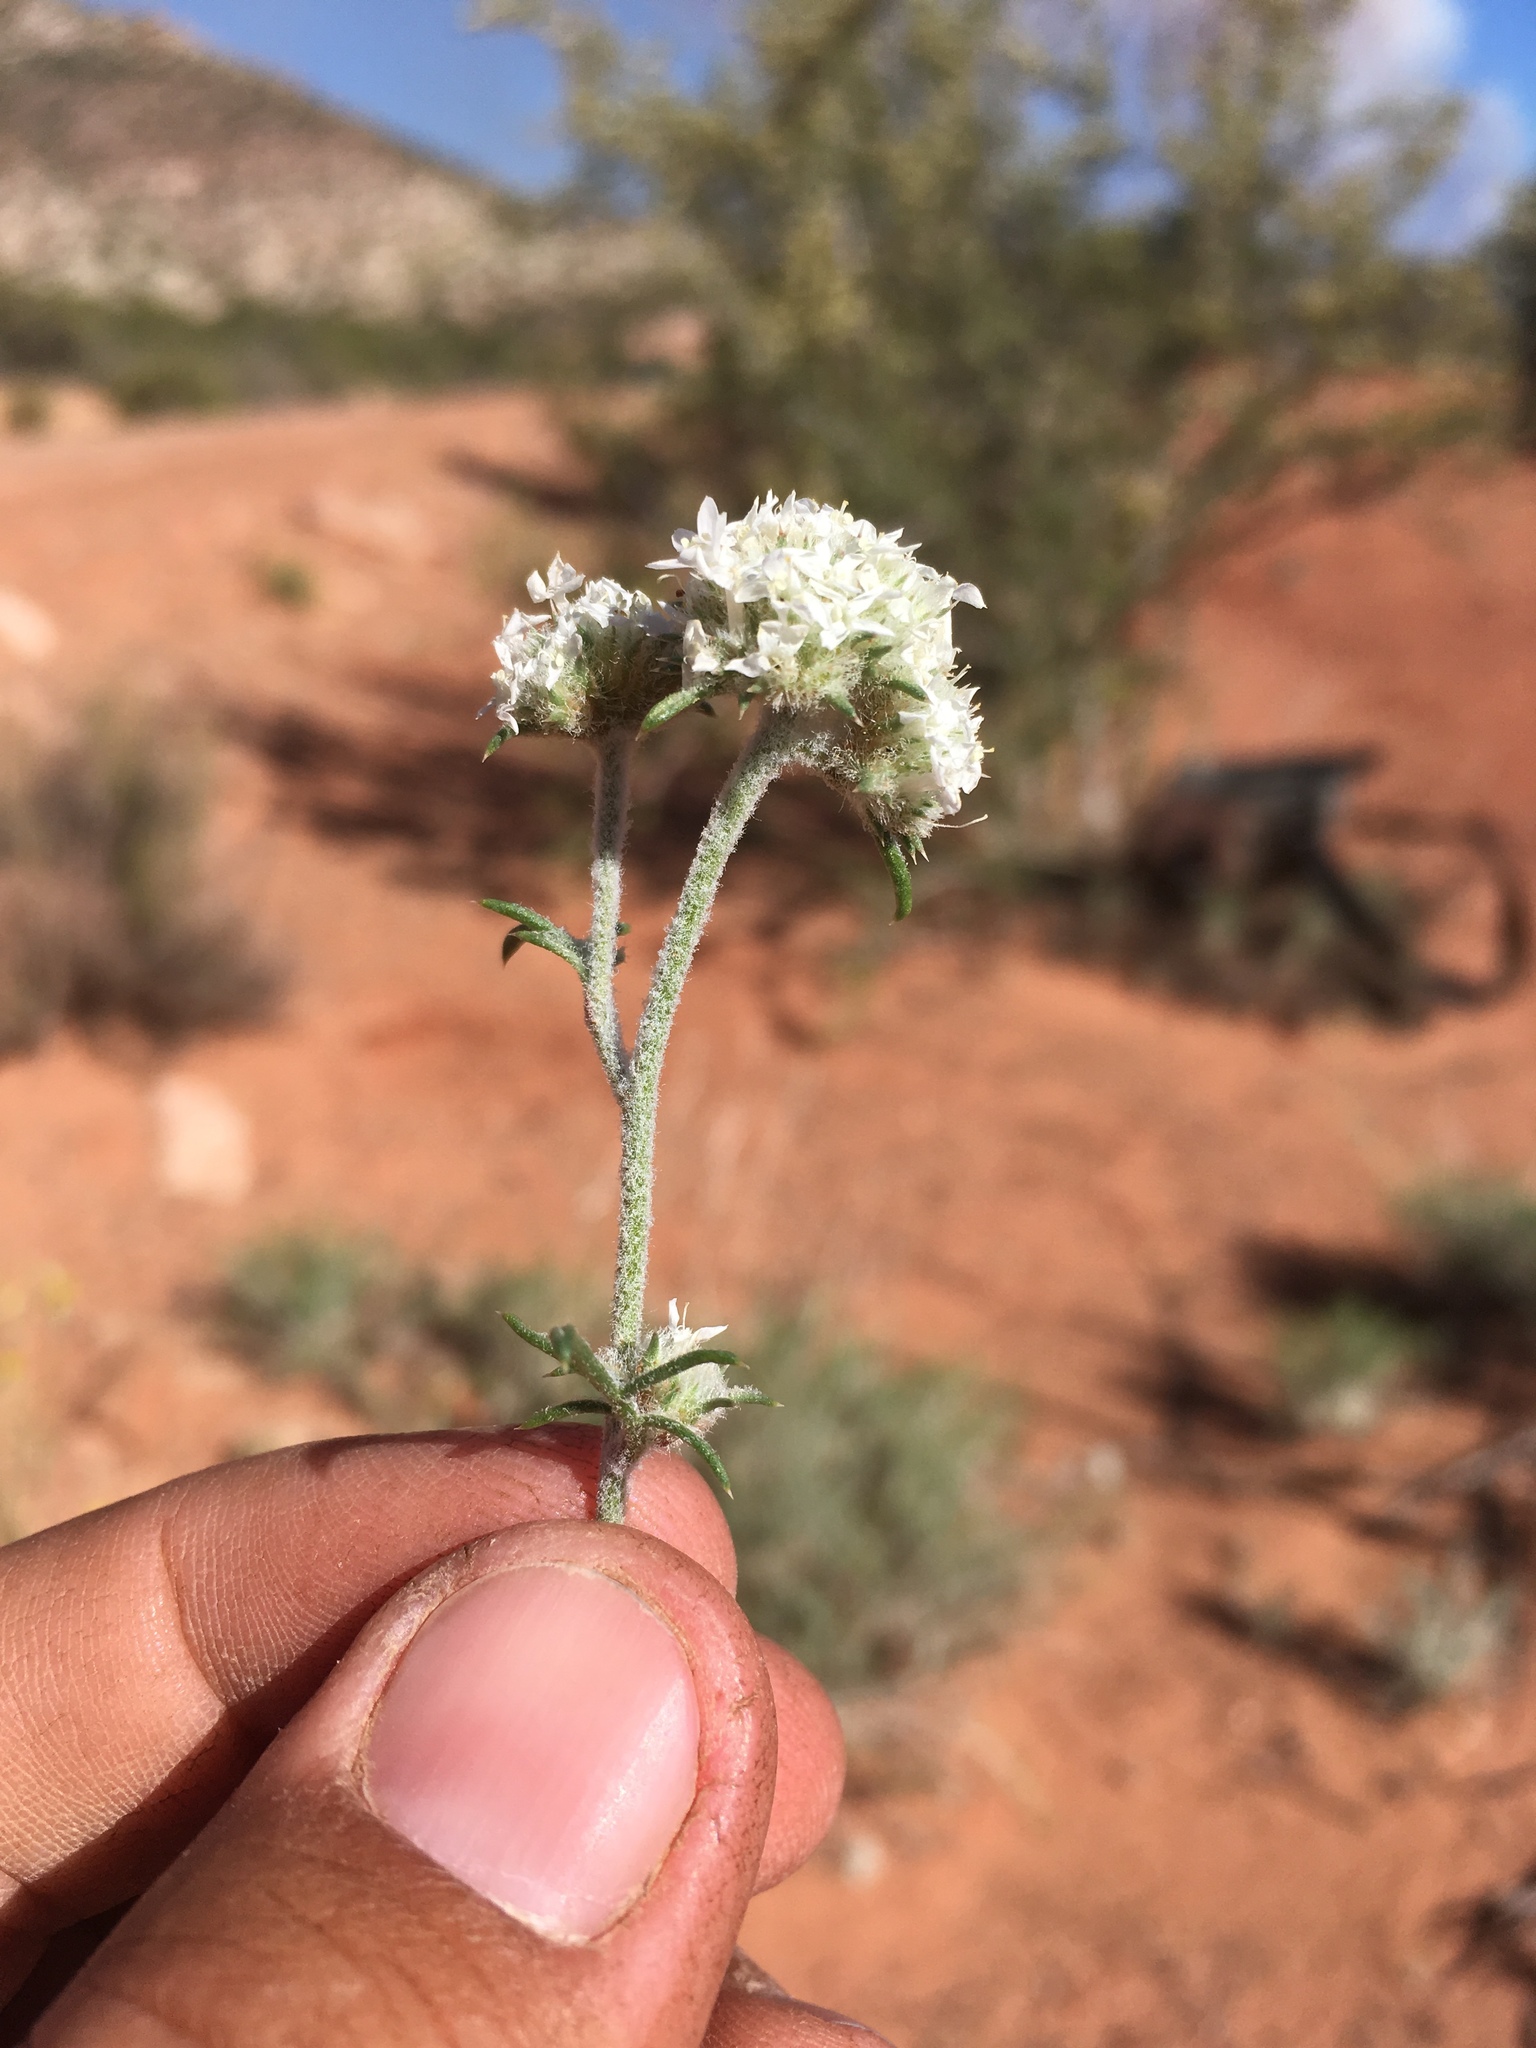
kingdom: Plantae
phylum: Tracheophyta
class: Magnoliopsida
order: Ericales
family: Polemoniaceae
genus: Ipomopsis
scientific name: Ipomopsis congesta
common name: Ball-head gilia
